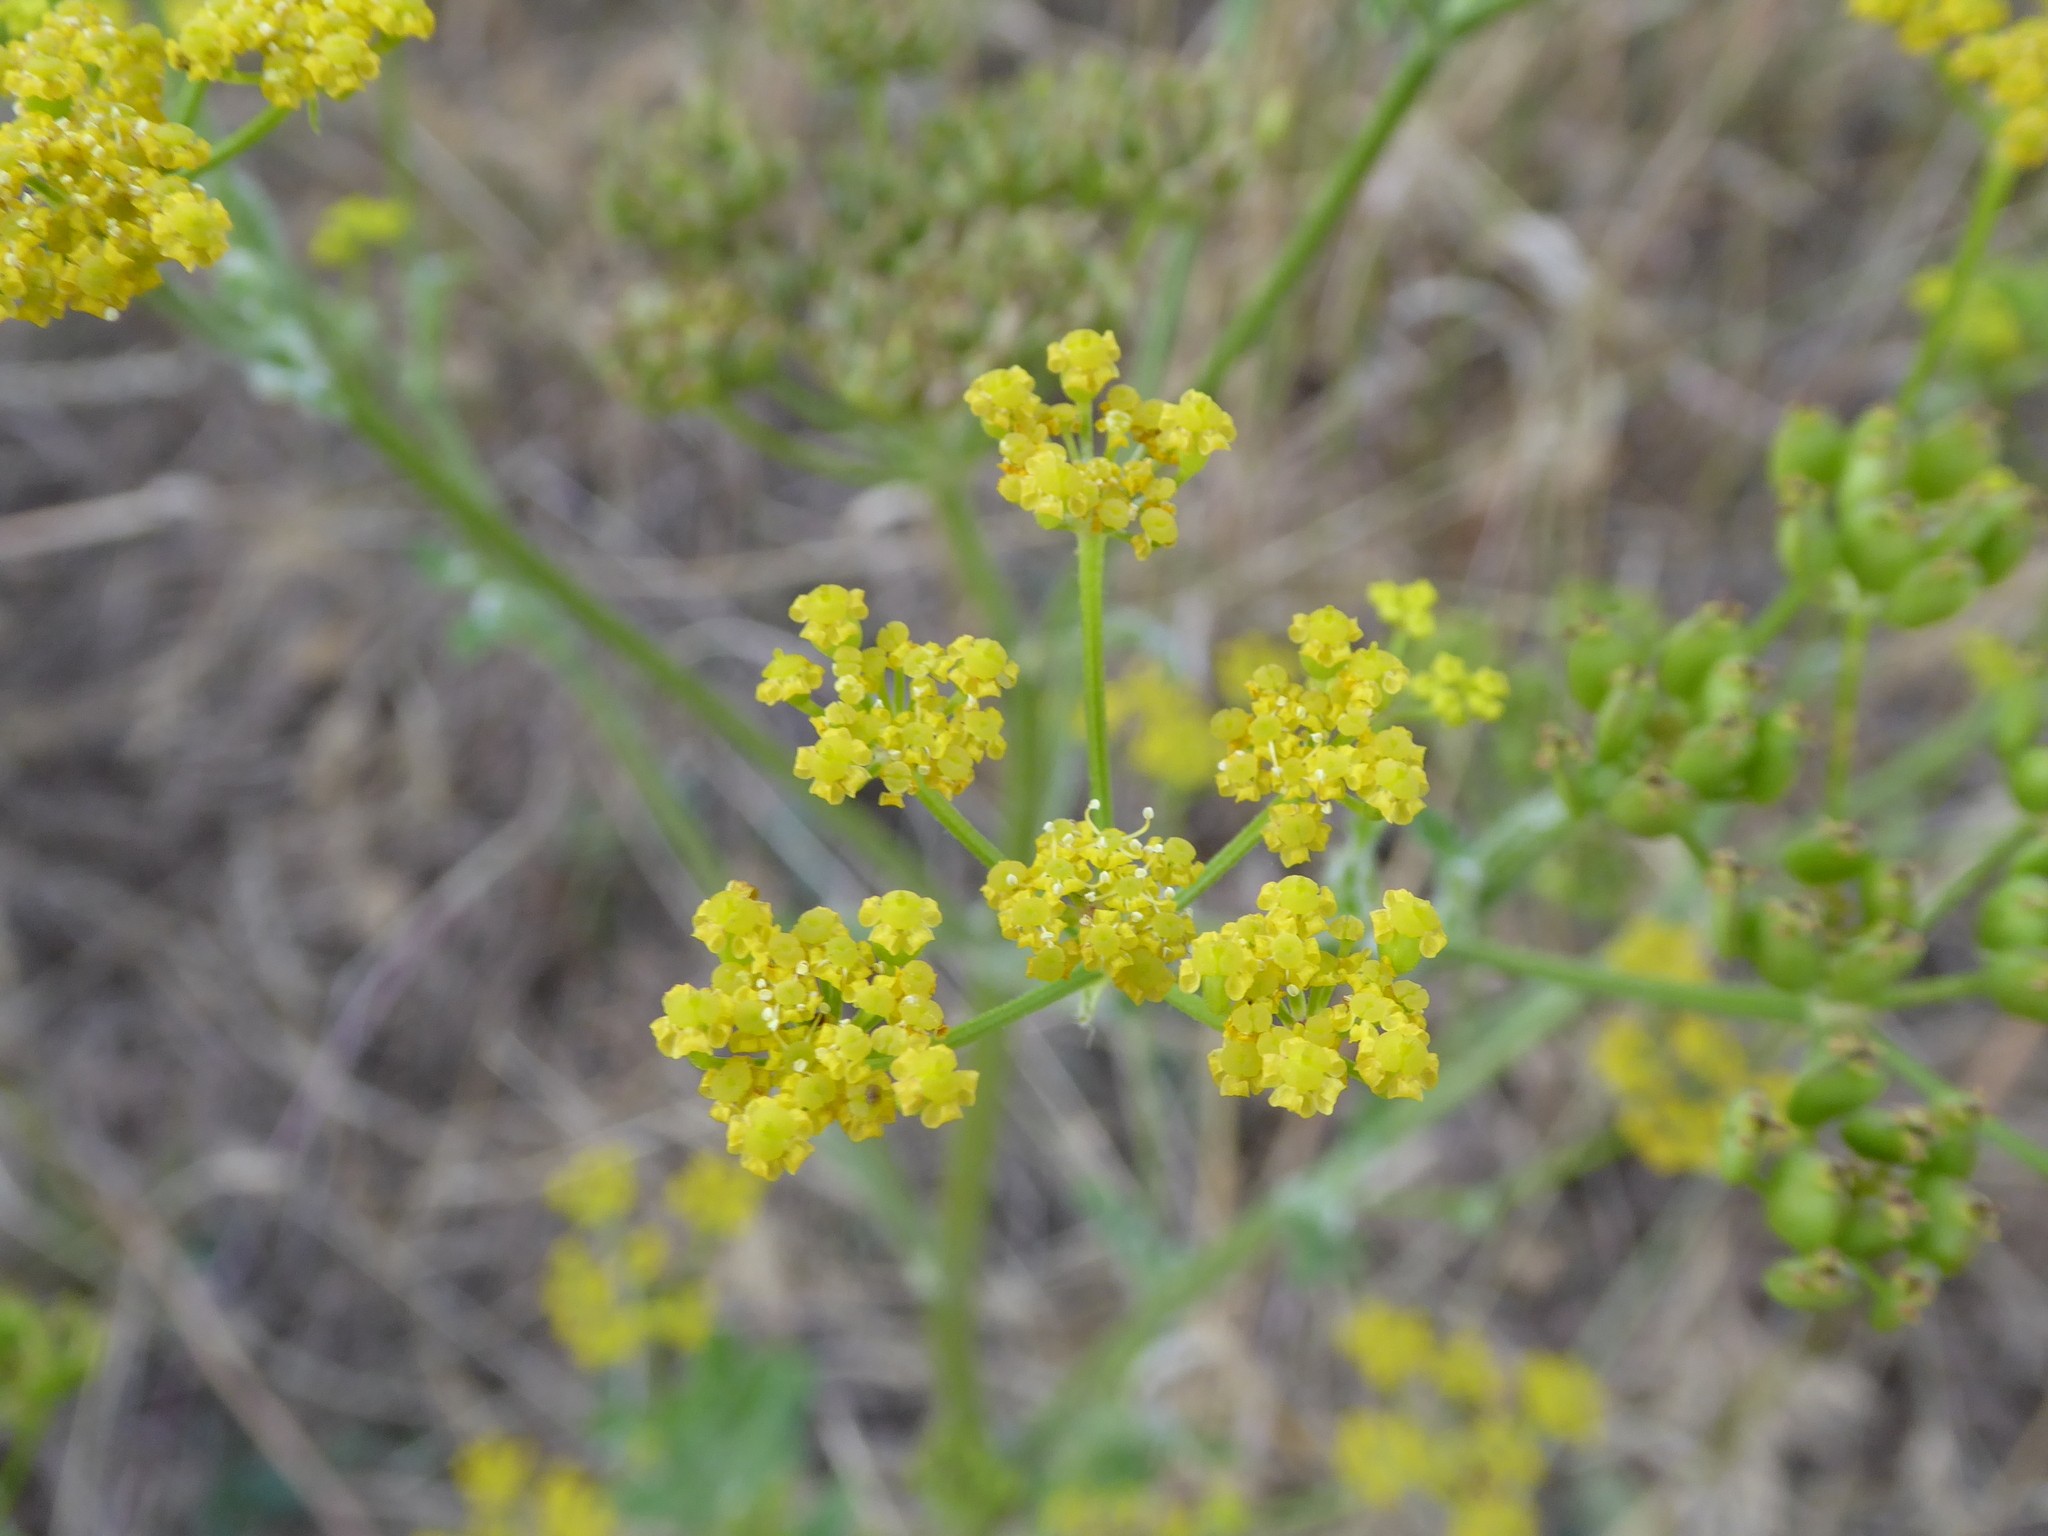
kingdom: Plantae
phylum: Tracheophyta
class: Magnoliopsida
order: Apiales
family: Apiaceae
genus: Pastinaca
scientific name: Pastinaca sativa
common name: Wild parsnip
